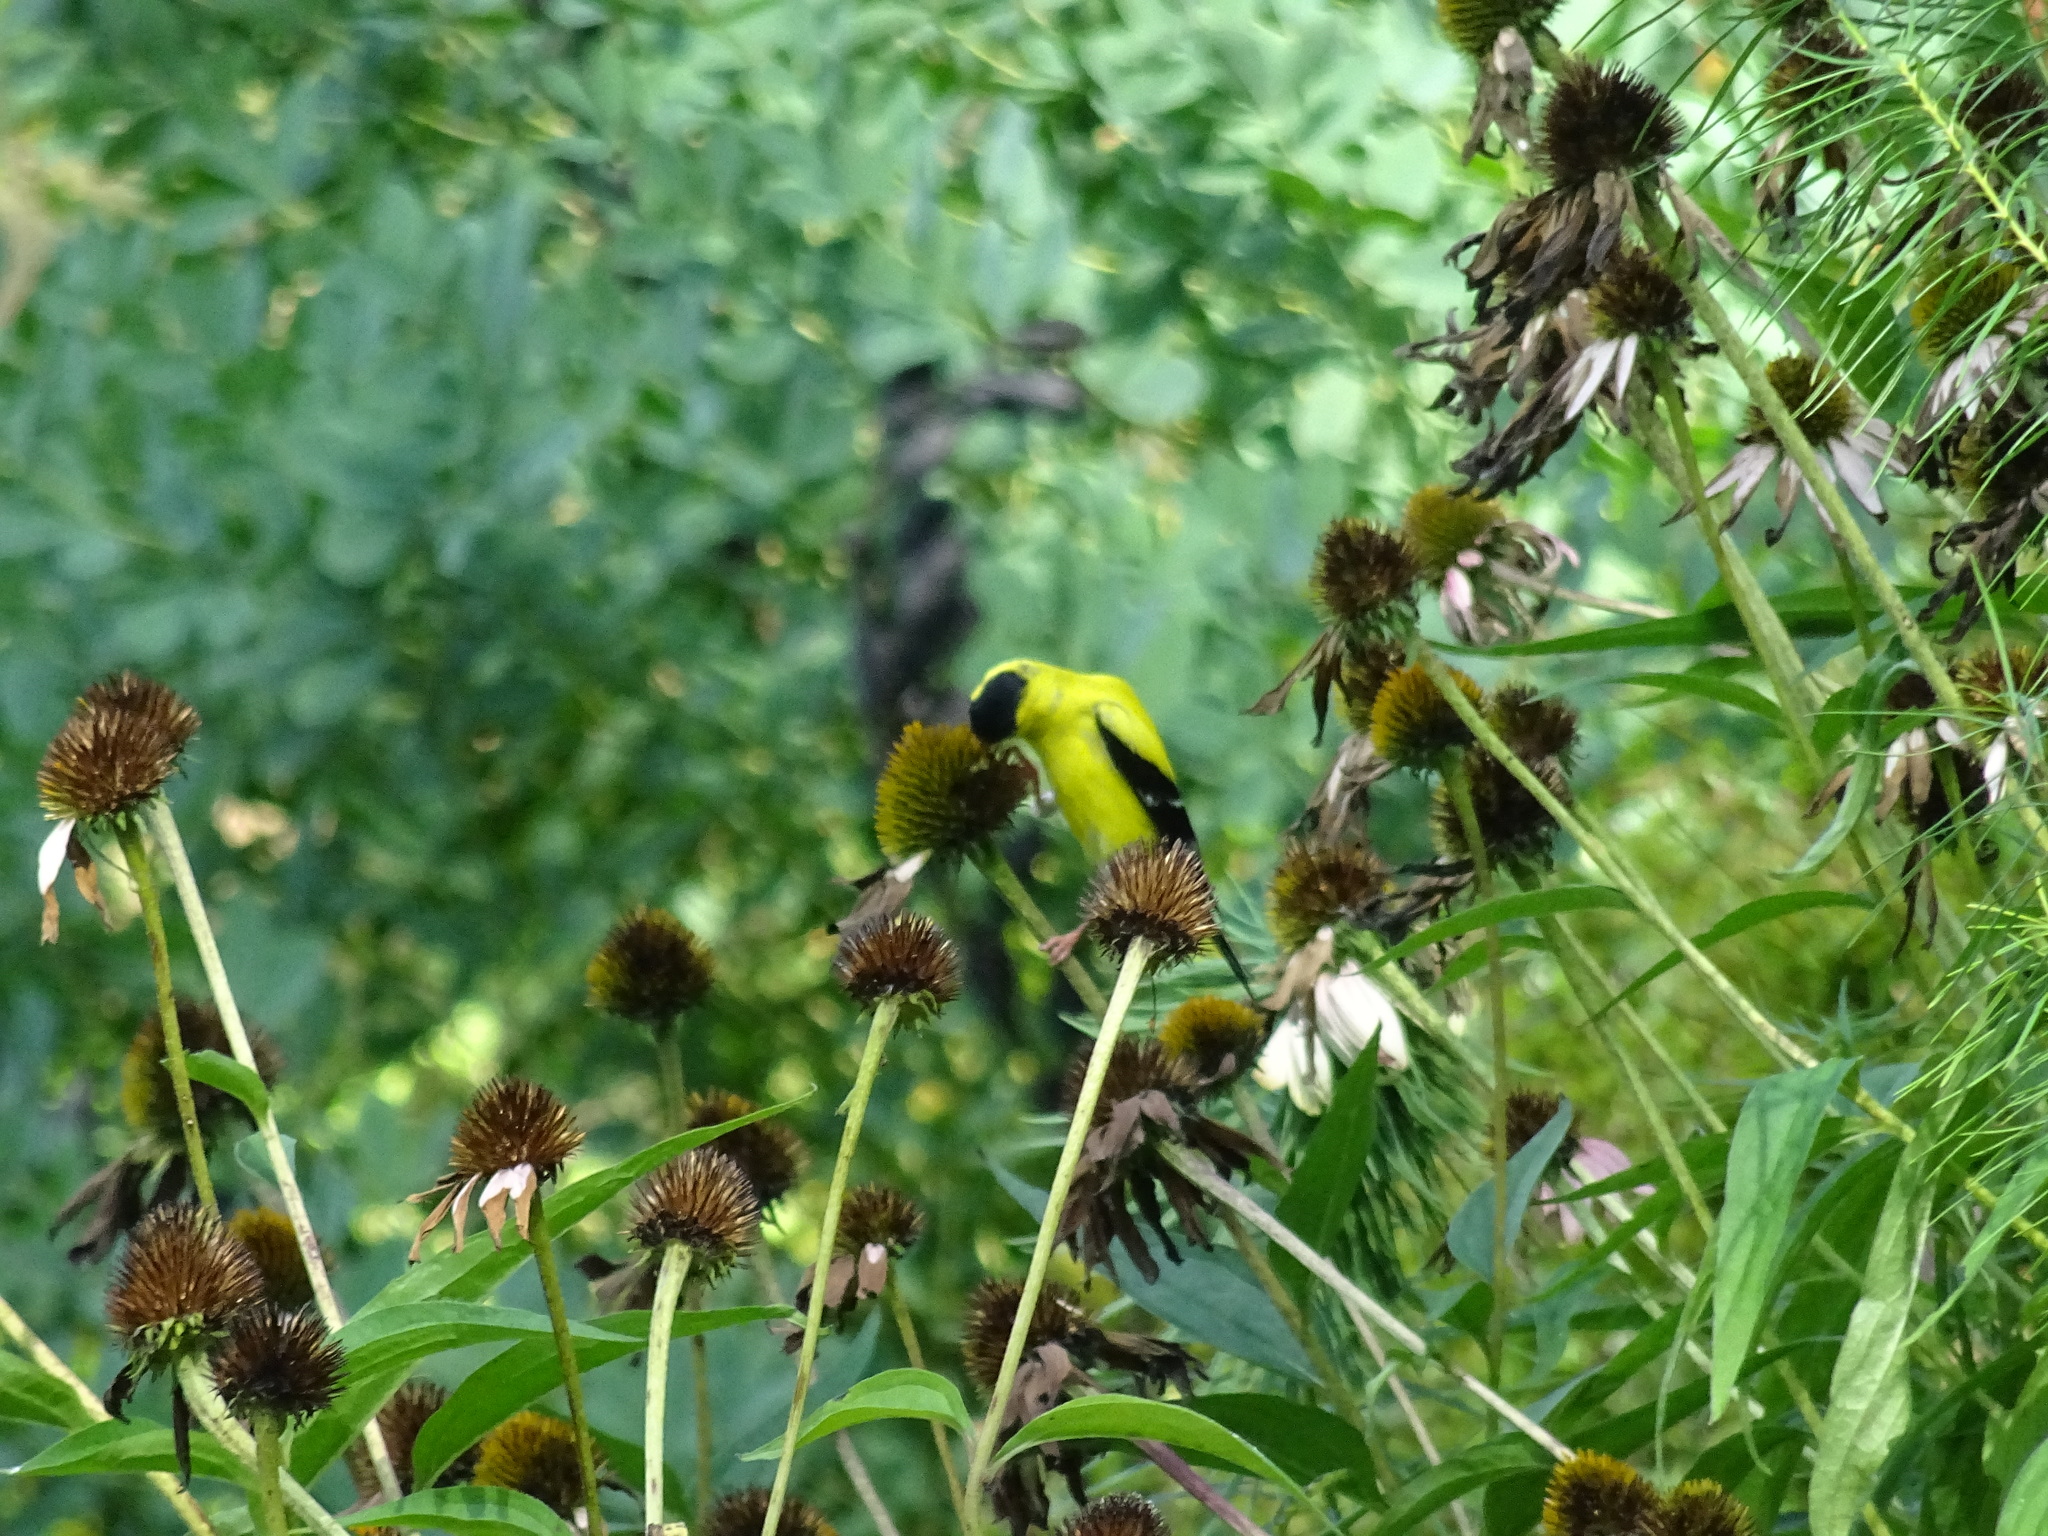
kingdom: Animalia
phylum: Chordata
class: Aves
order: Passeriformes
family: Fringillidae
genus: Spinus
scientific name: Spinus tristis
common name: American goldfinch
